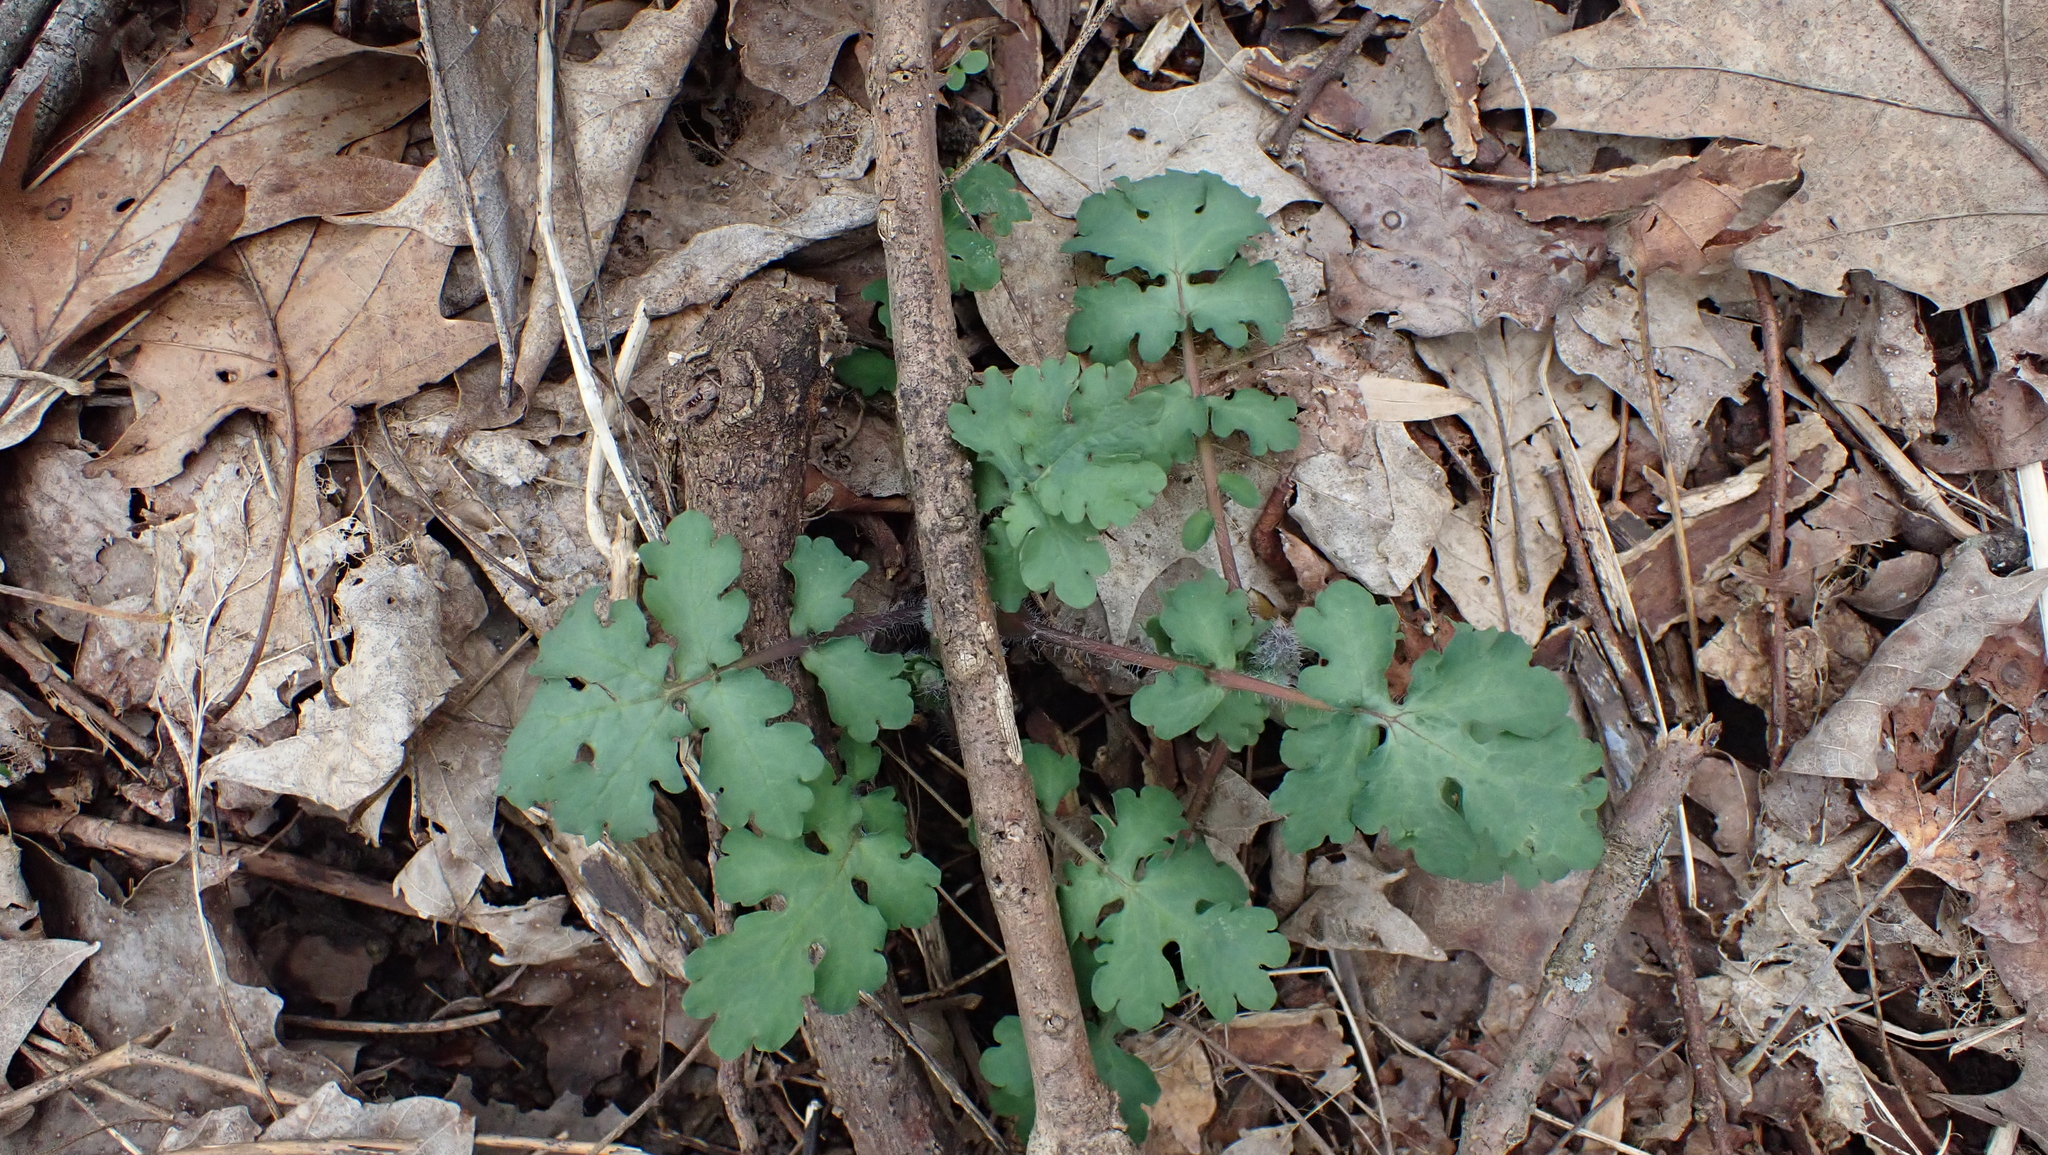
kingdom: Plantae
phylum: Tracheophyta
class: Magnoliopsida
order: Ranunculales
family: Papaveraceae
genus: Stylophorum
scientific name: Stylophorum diphyllum
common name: Celandine poppy
